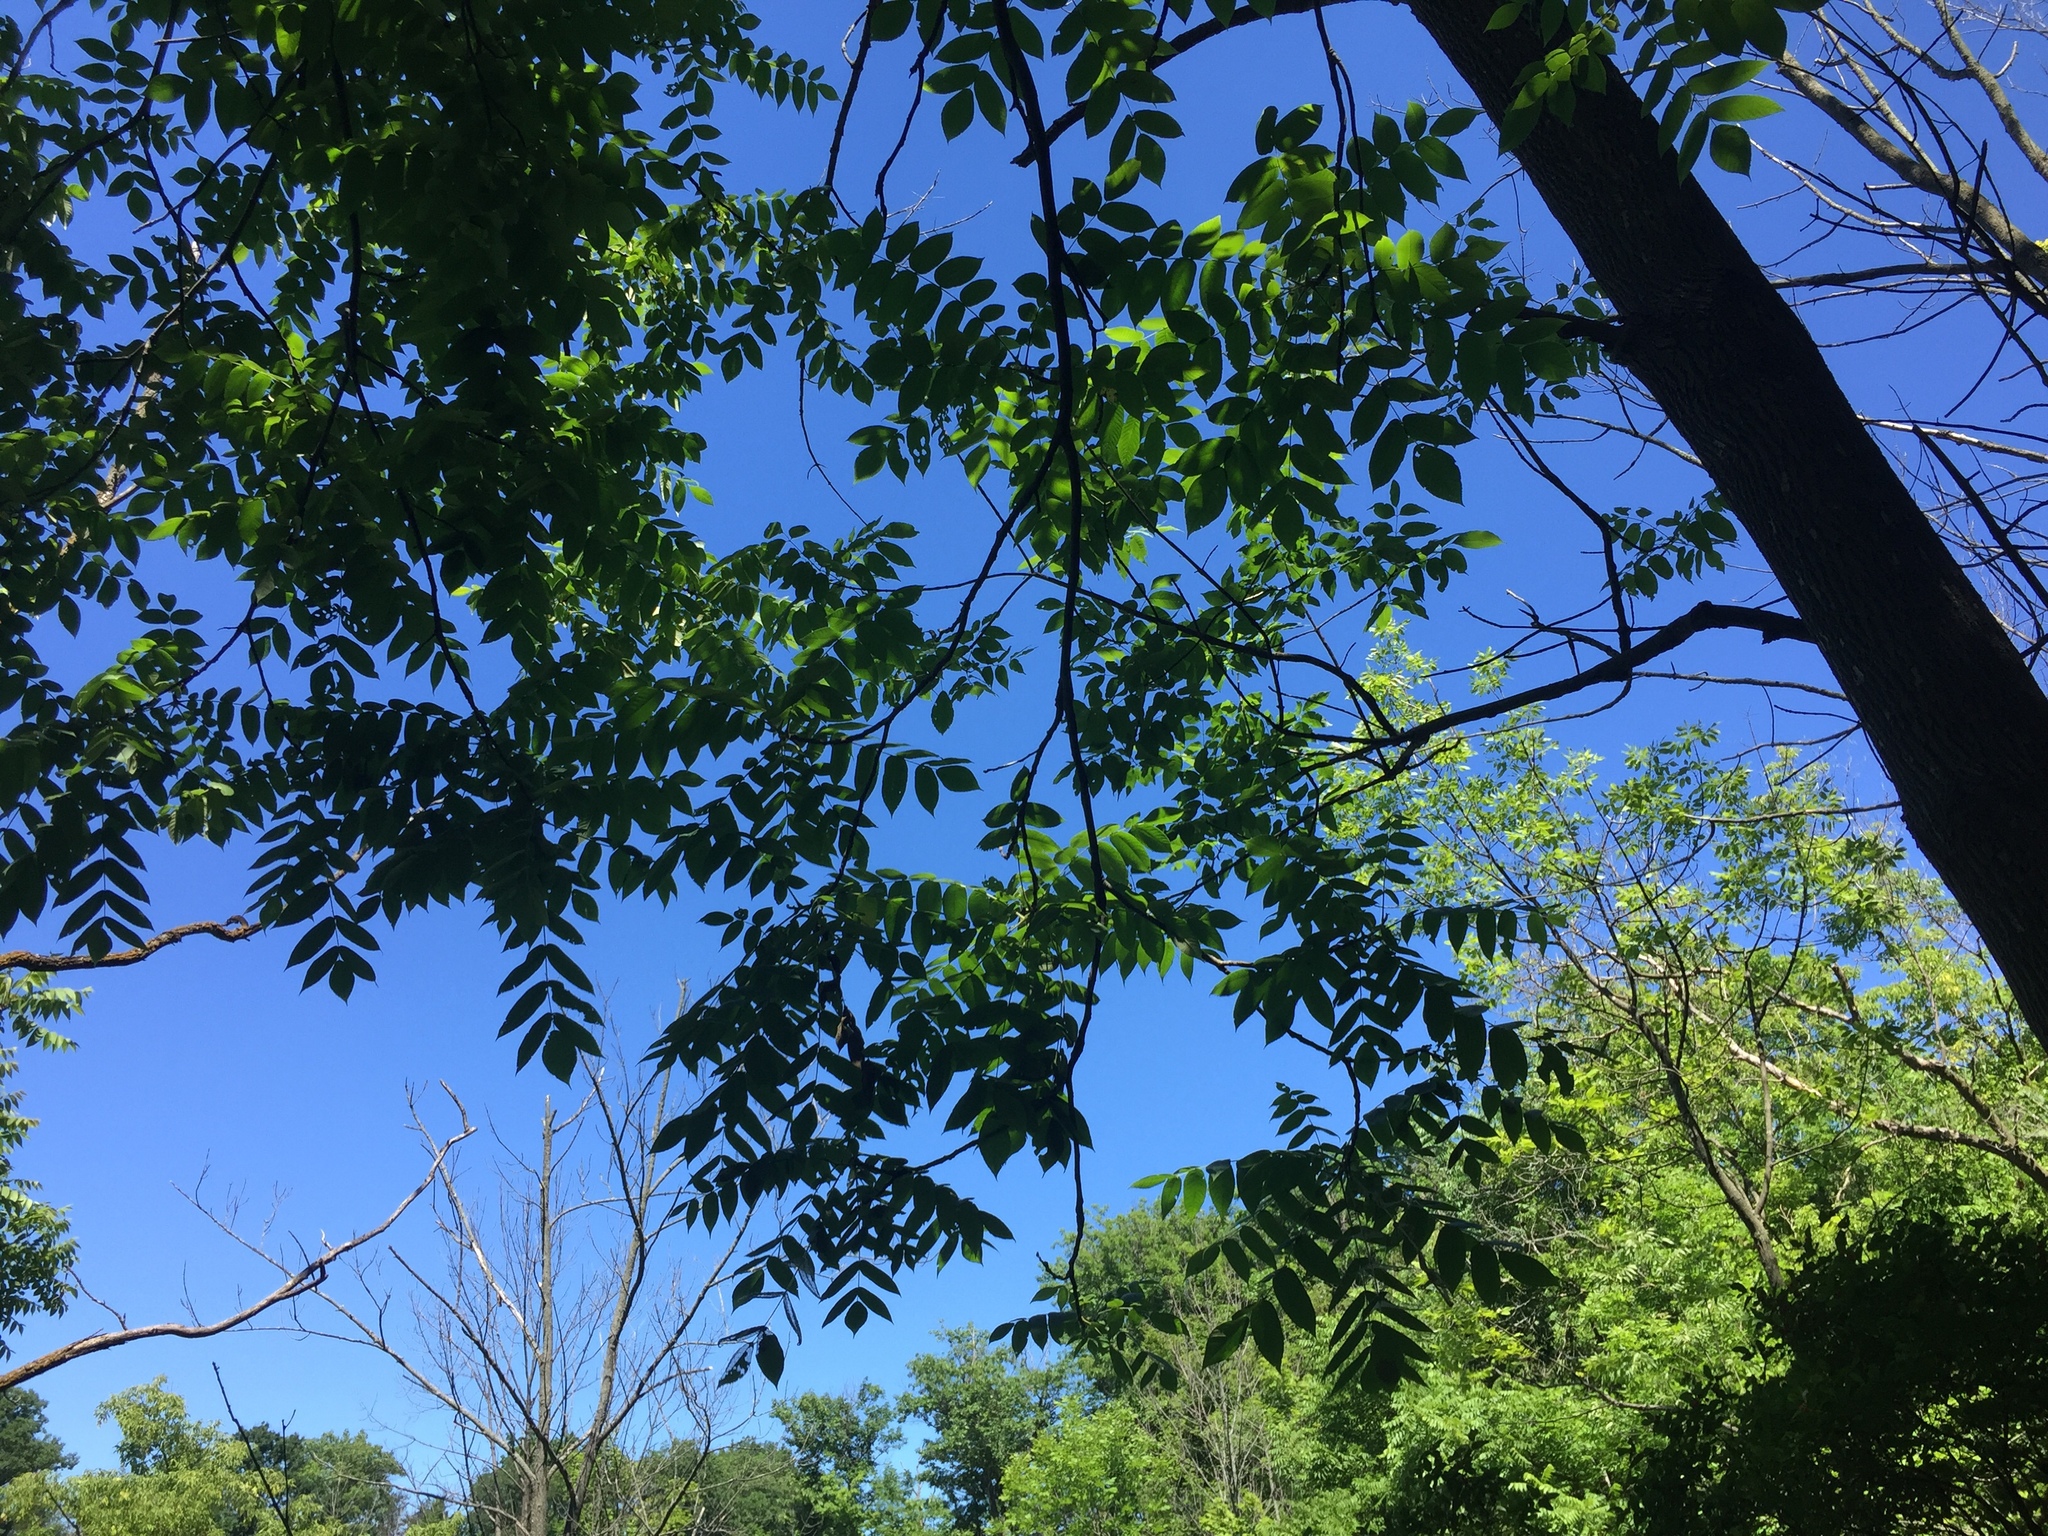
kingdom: Plantae
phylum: Tracheophyta
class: Magnoliopsida
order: Fagales
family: Juglandaceae
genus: Juglans
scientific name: Juglans cinerea
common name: Butternut
